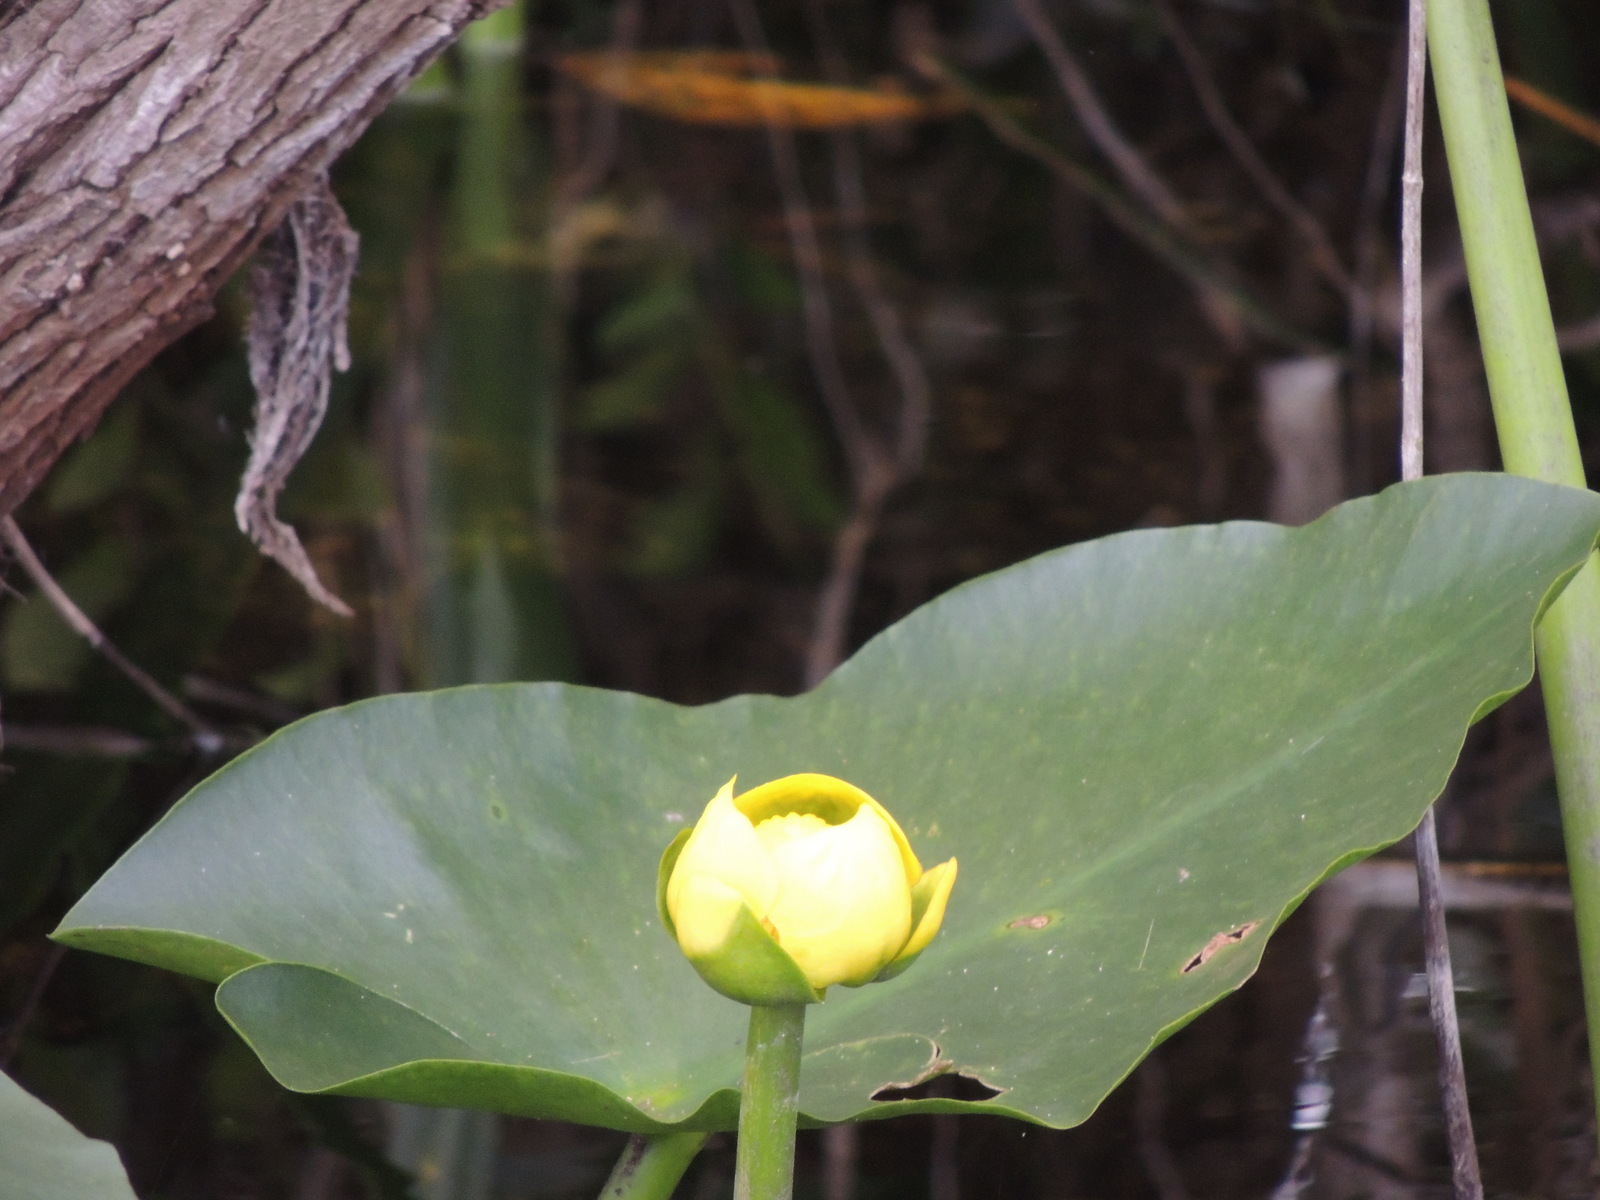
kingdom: Plantae
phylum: Tracheophyta
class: Magnoliopsida
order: Nymphaeales
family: Nymphaeaceae
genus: Nuphar
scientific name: Nuphar advena
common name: Spatter-dock
